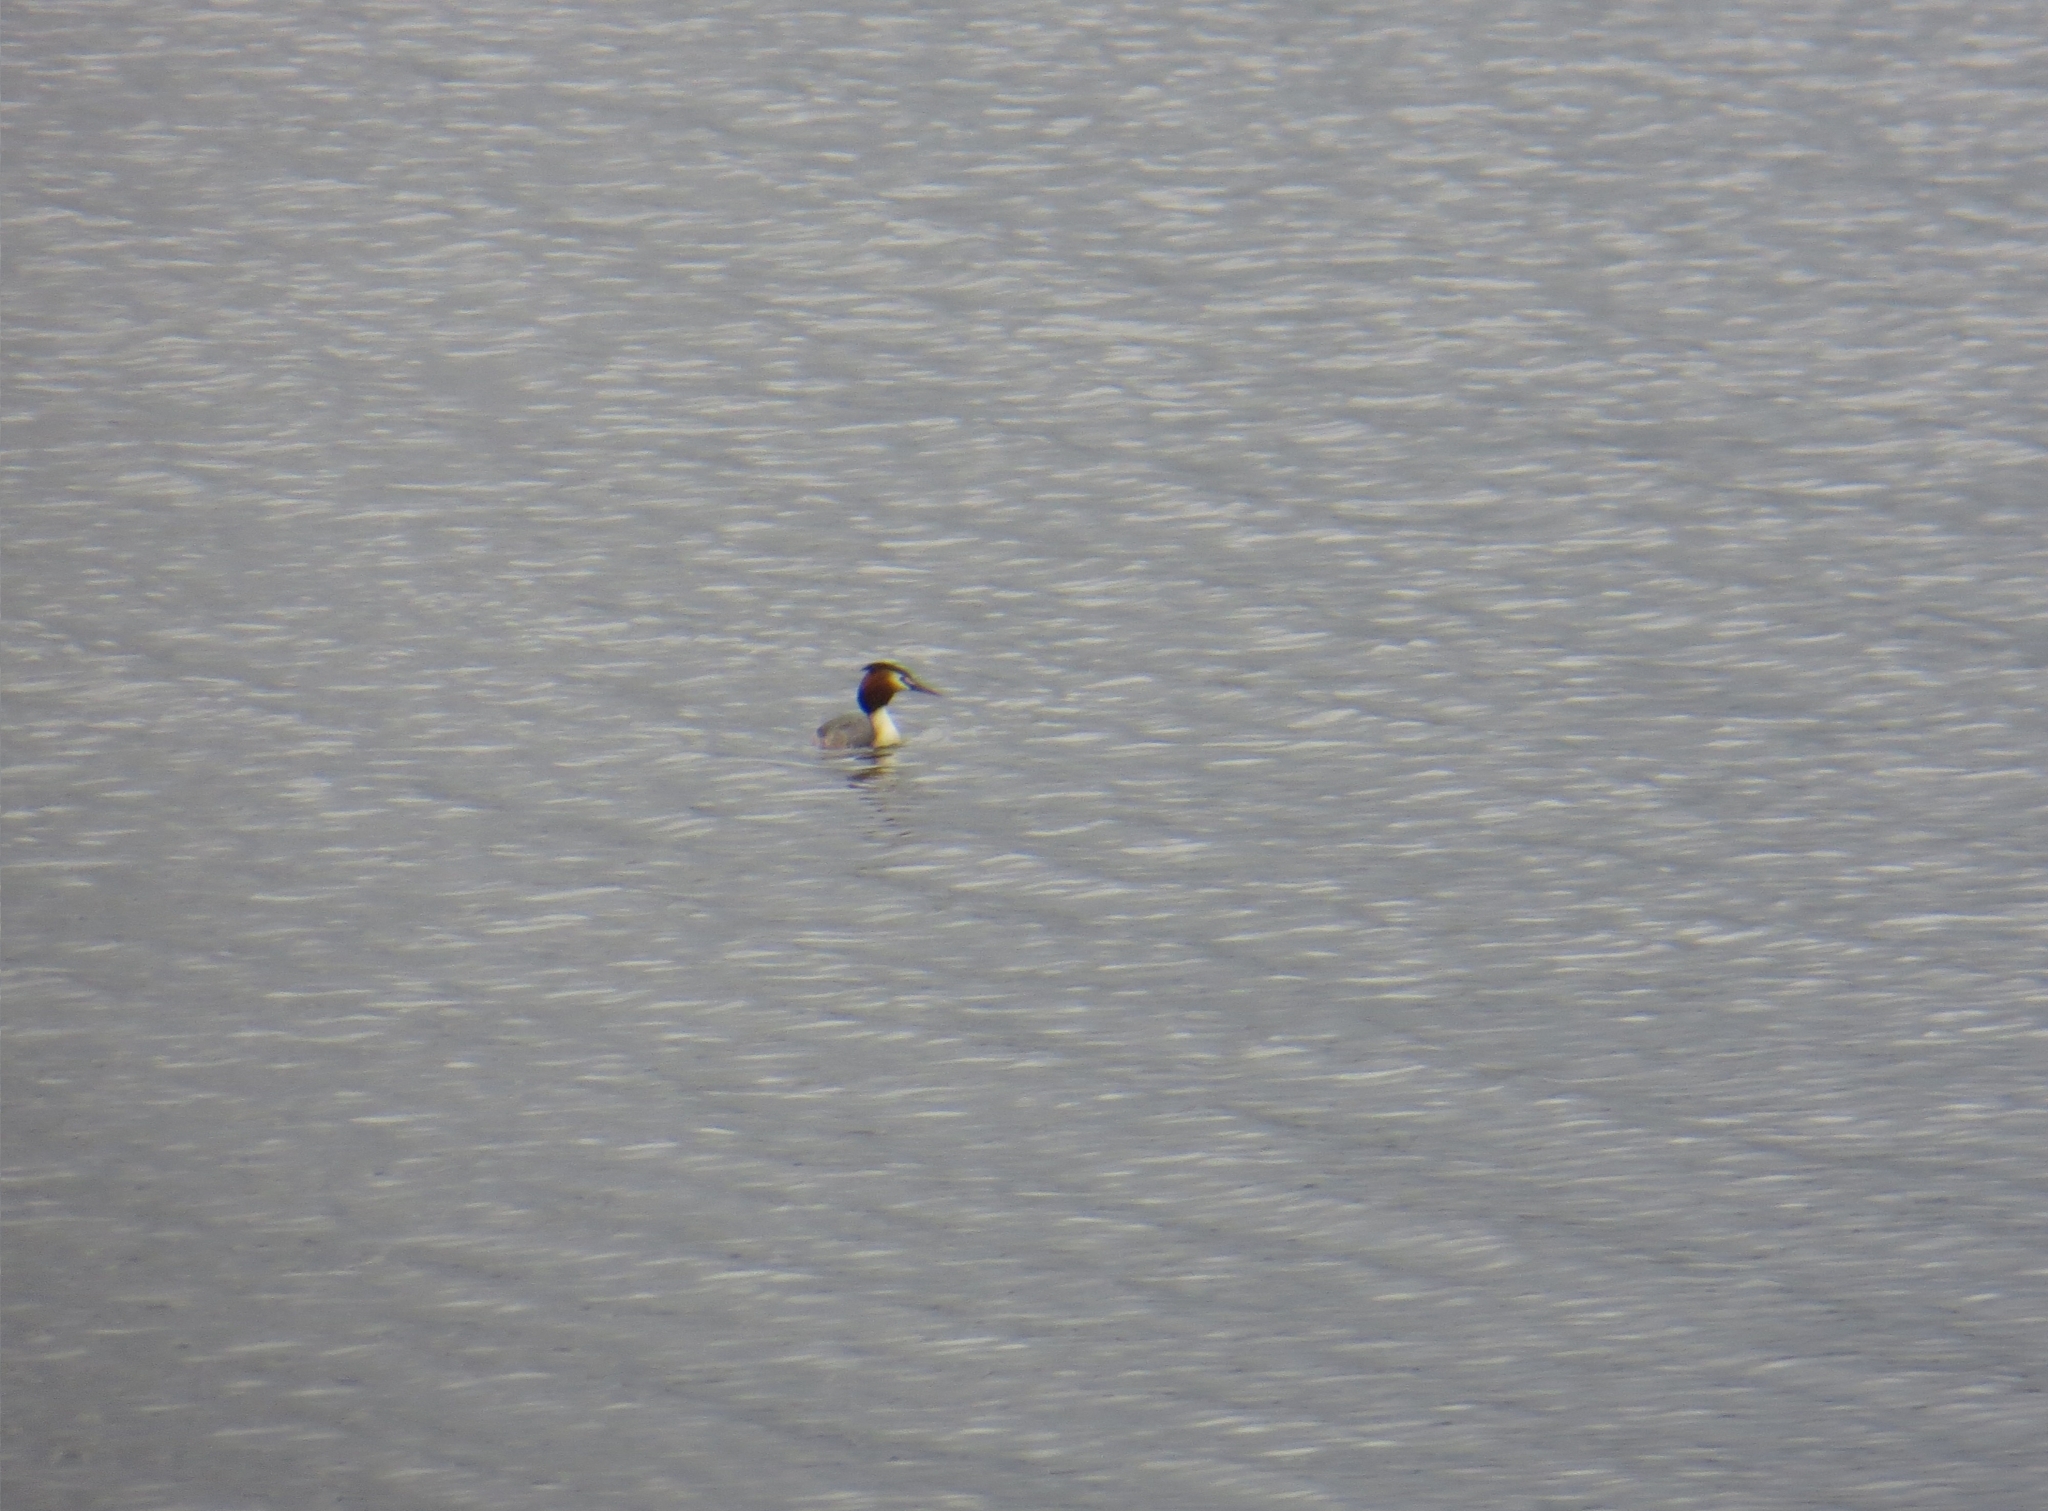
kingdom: Animalia
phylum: Chordata
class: Aves
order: Podicipediformes
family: Podicipedidae
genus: Podiceps
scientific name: Podiceps cristatus
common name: Great crested grebe
